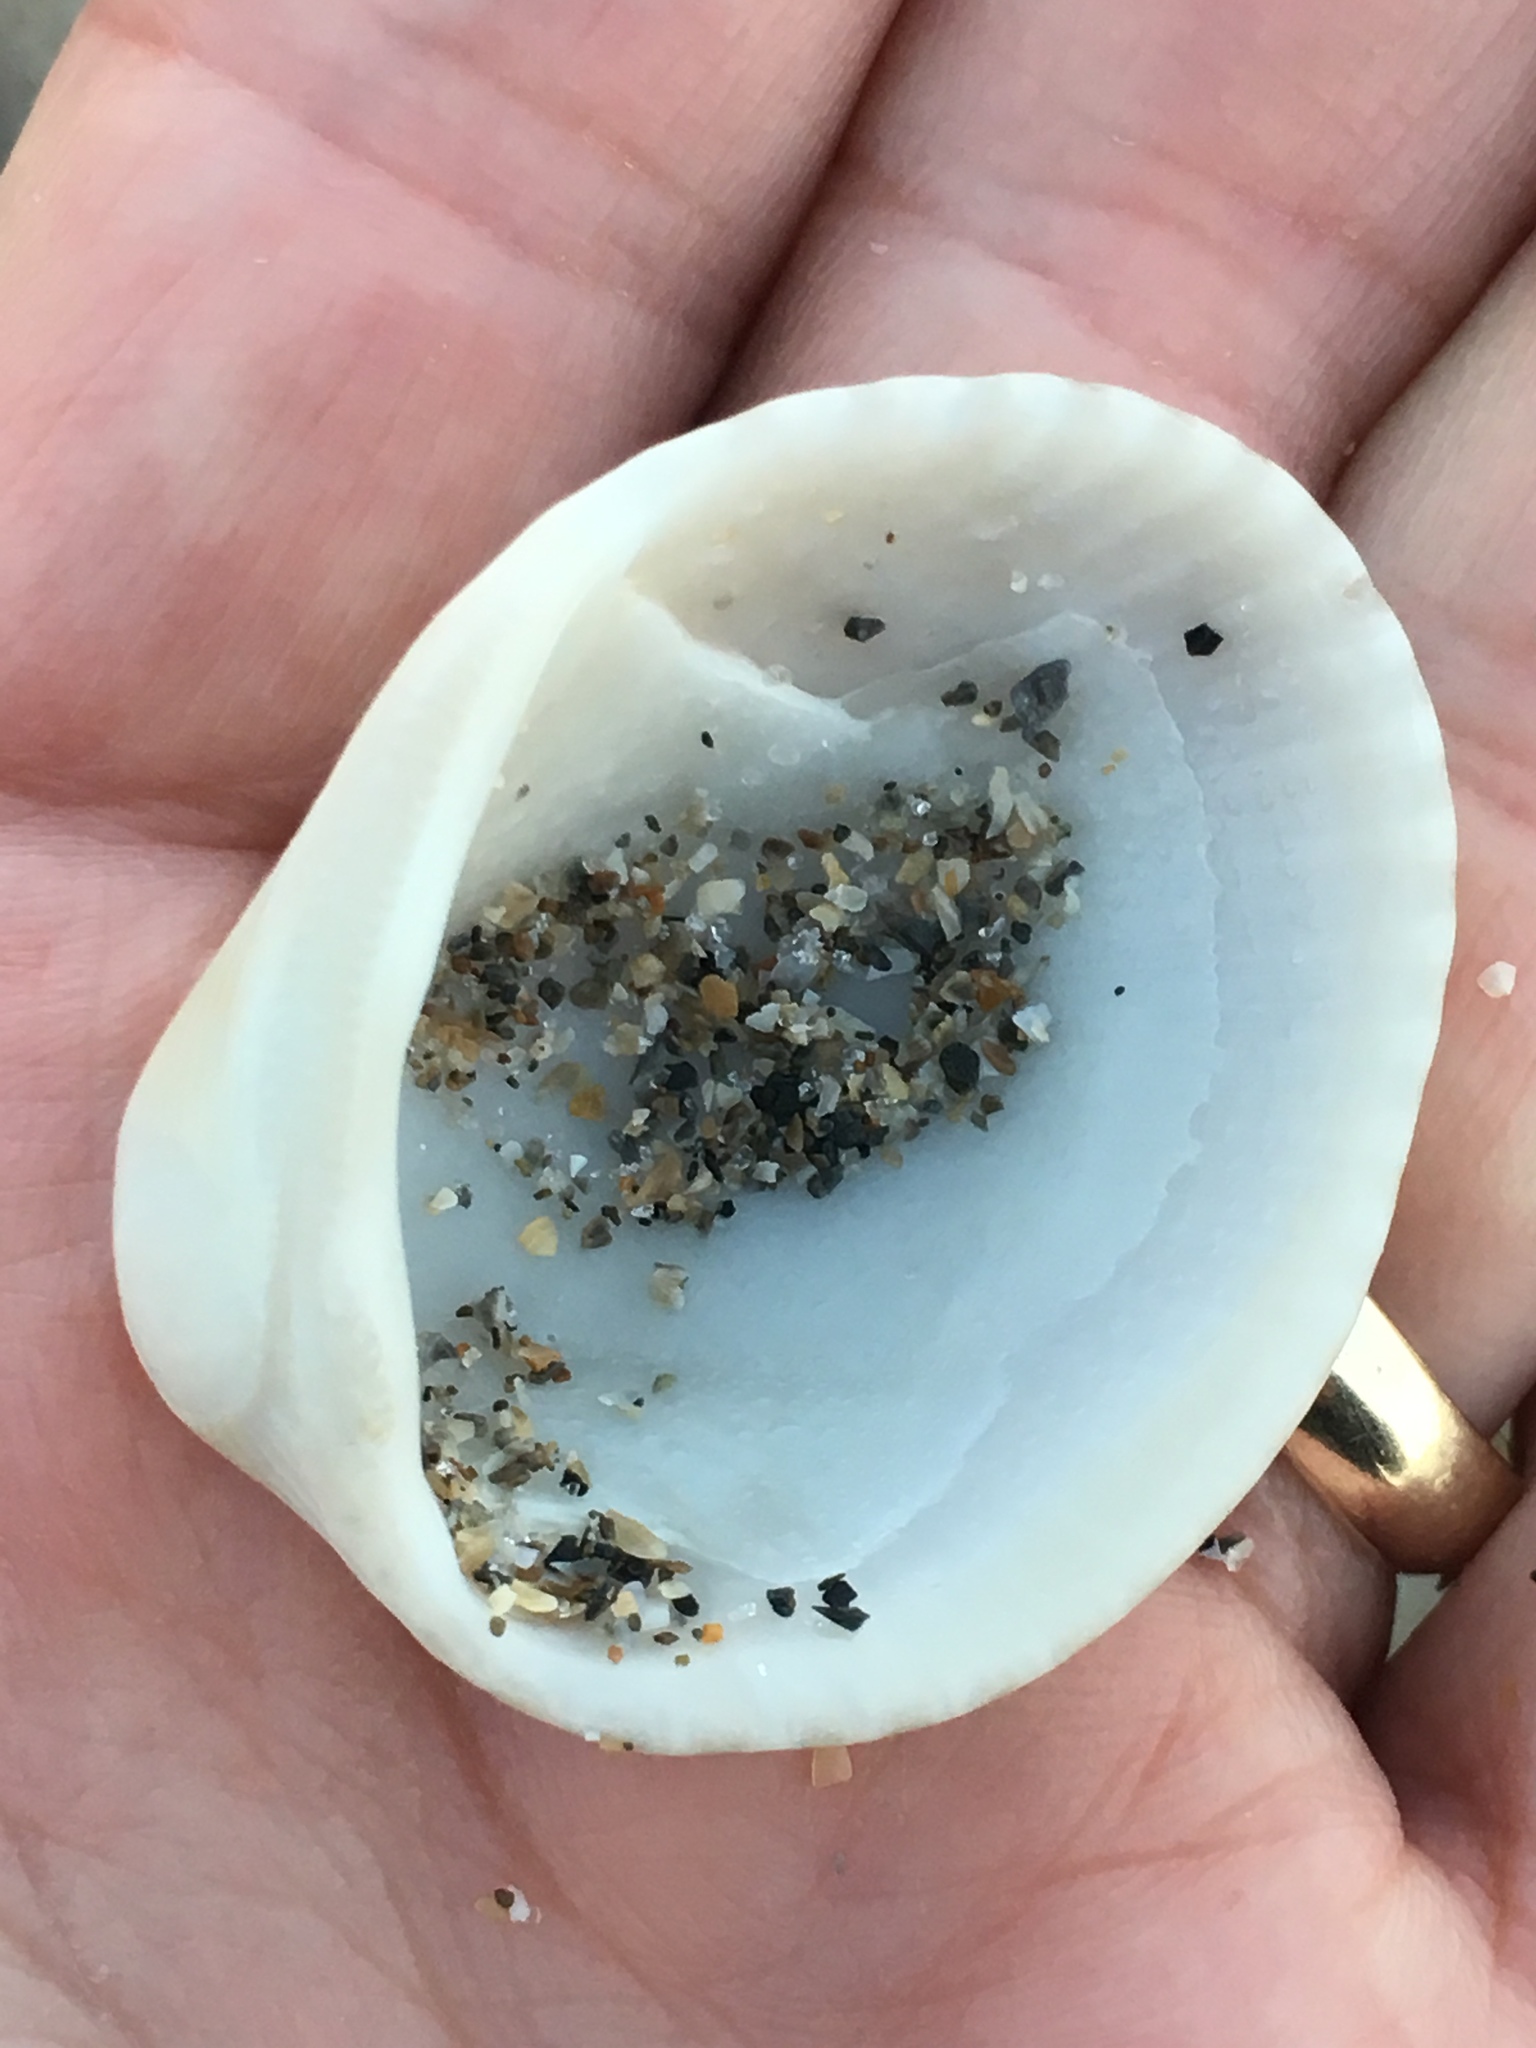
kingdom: Animalia
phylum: Mollusca
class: Bivalvia
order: Arcida
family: Arcidae
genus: Lunarca
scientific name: Lunarca ovalis
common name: Blood ark
